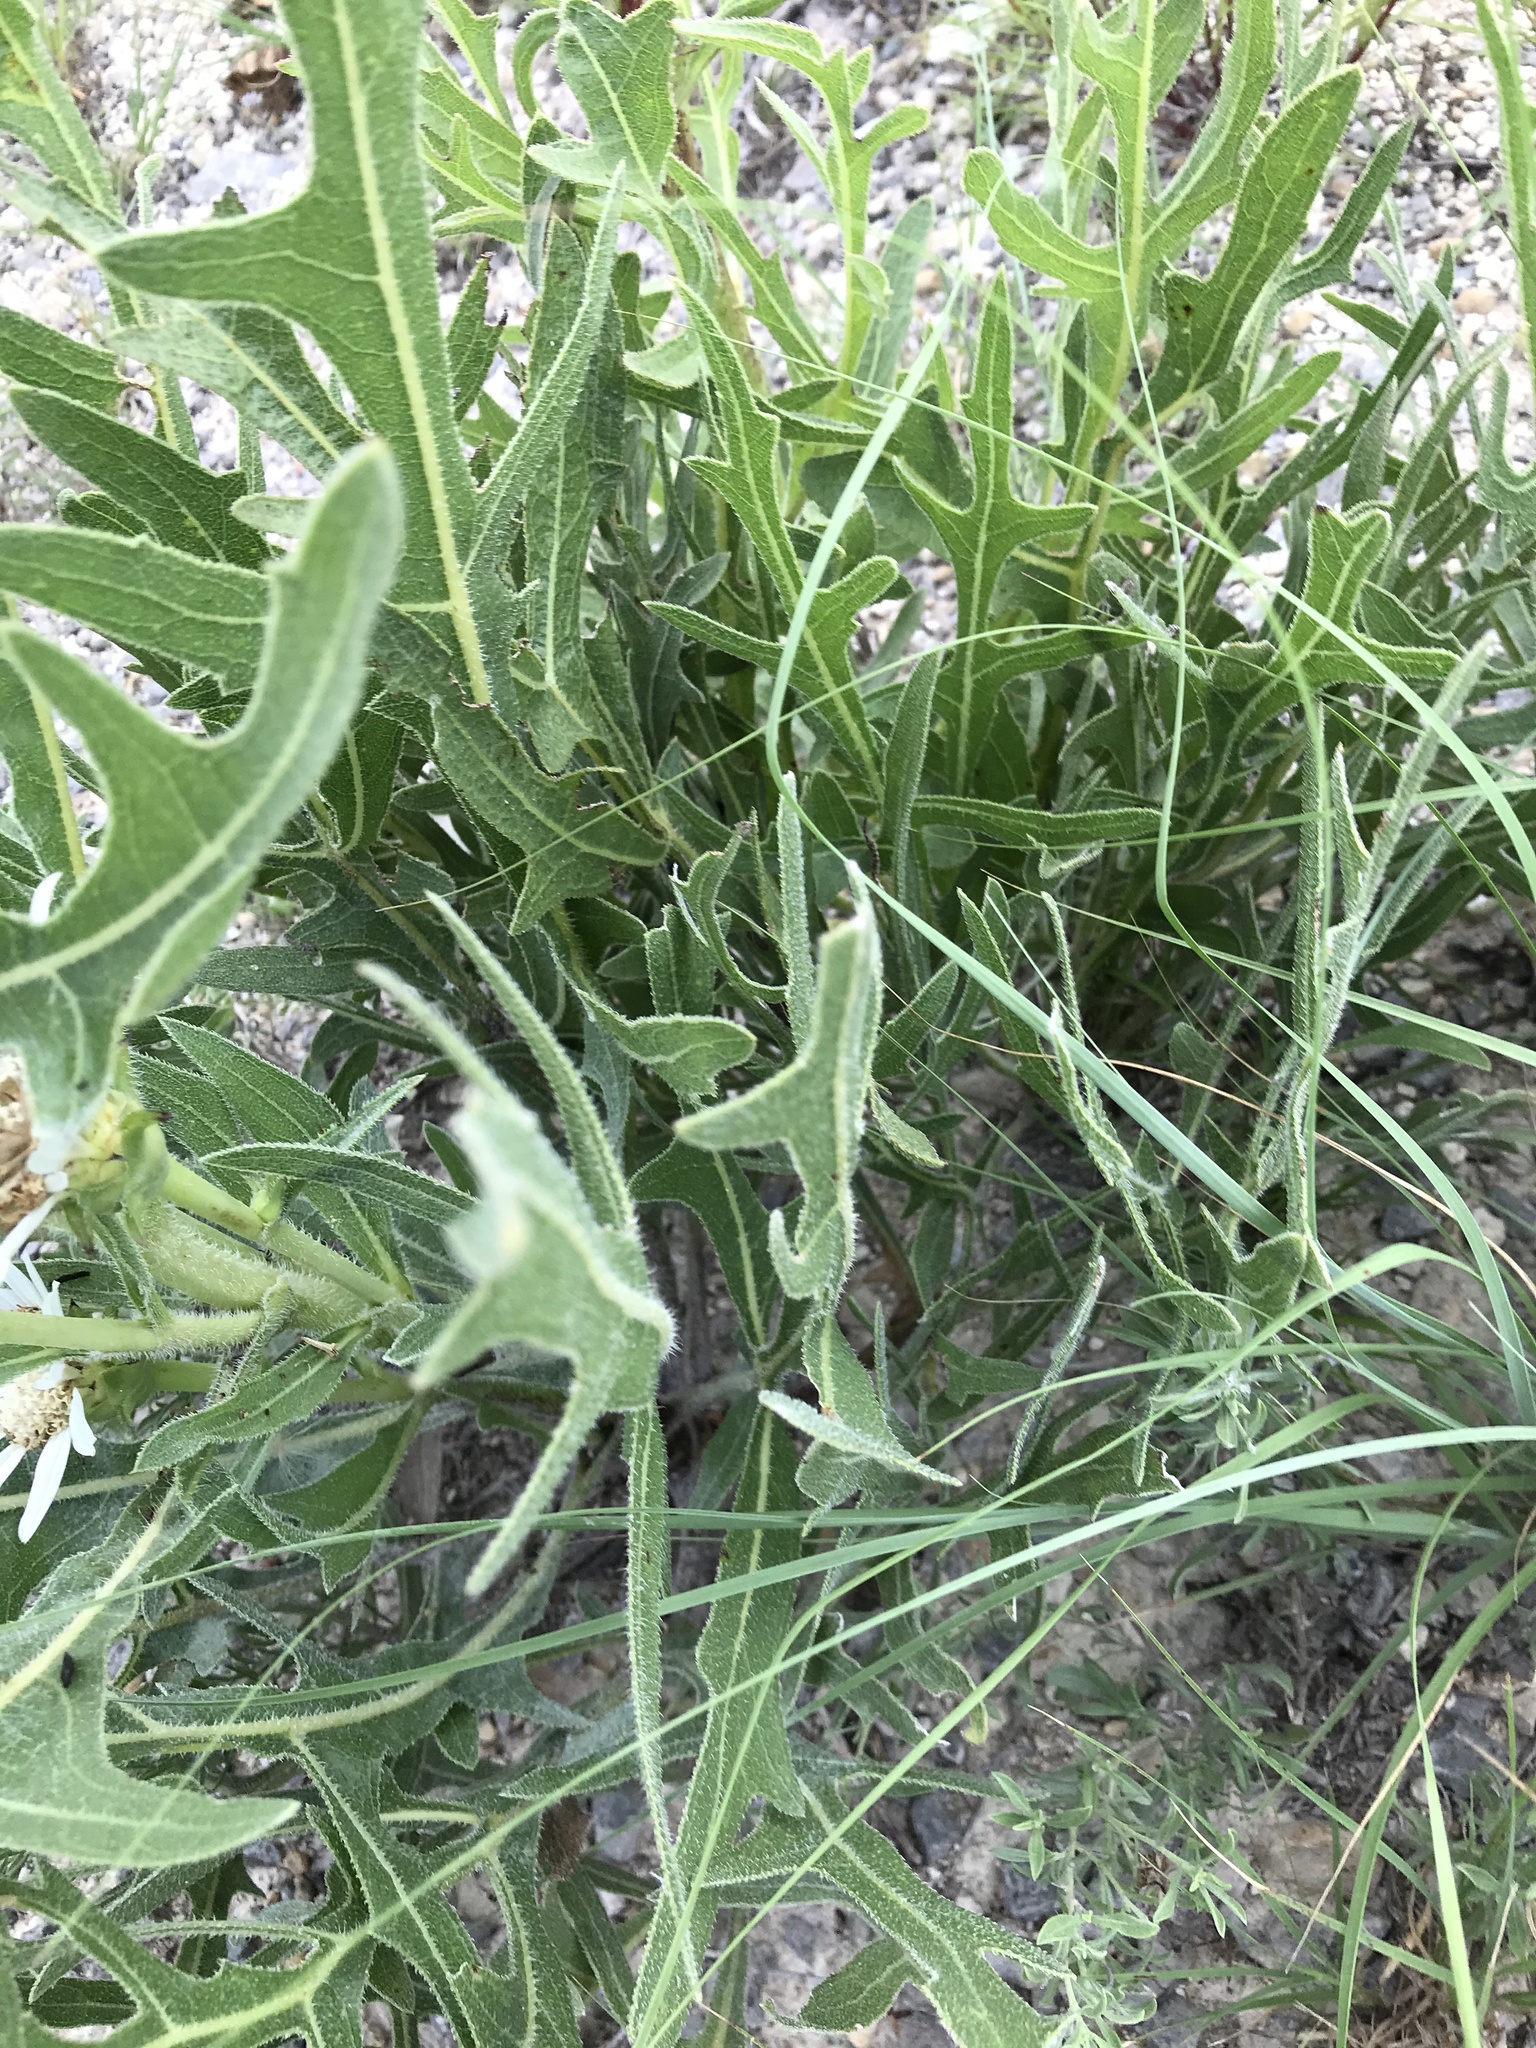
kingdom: Plantae
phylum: Tracheophyta
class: Magnoliopsida
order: Asterales
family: Asteraceae
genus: Silphium
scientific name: Silphium albiflorum
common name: White rosinweed
